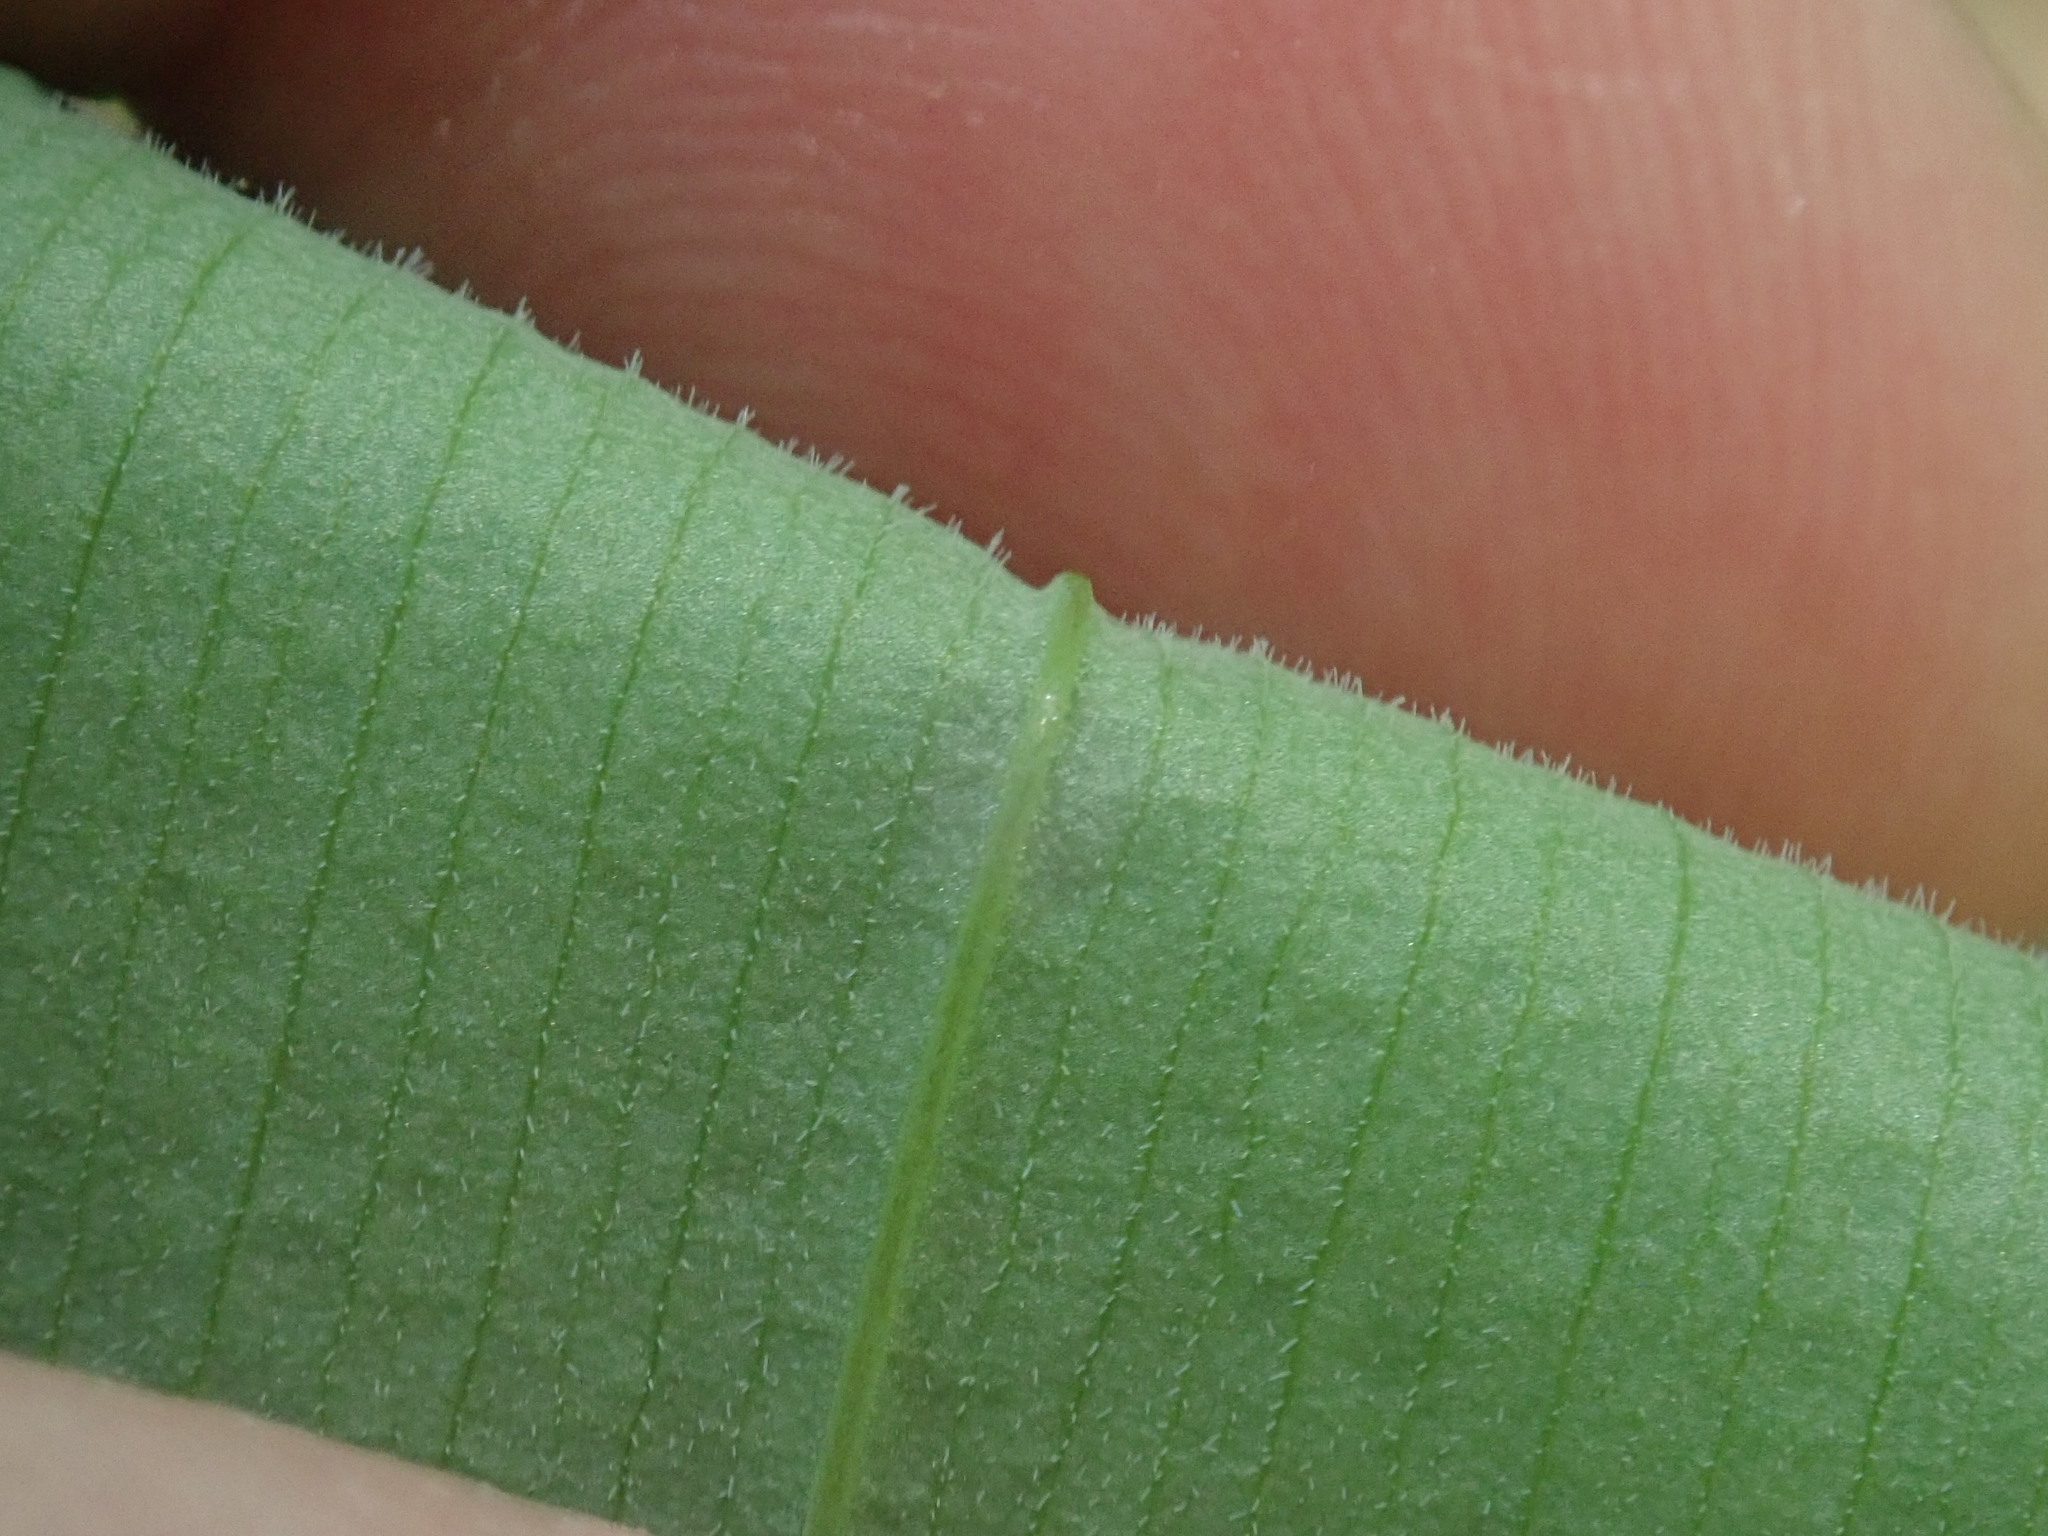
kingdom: Plantae
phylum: Tracheophyta
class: Liliopsida
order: Liliales
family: Colchicaceae
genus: Uvularia
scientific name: Uvularia grandiflora
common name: Bellwort
